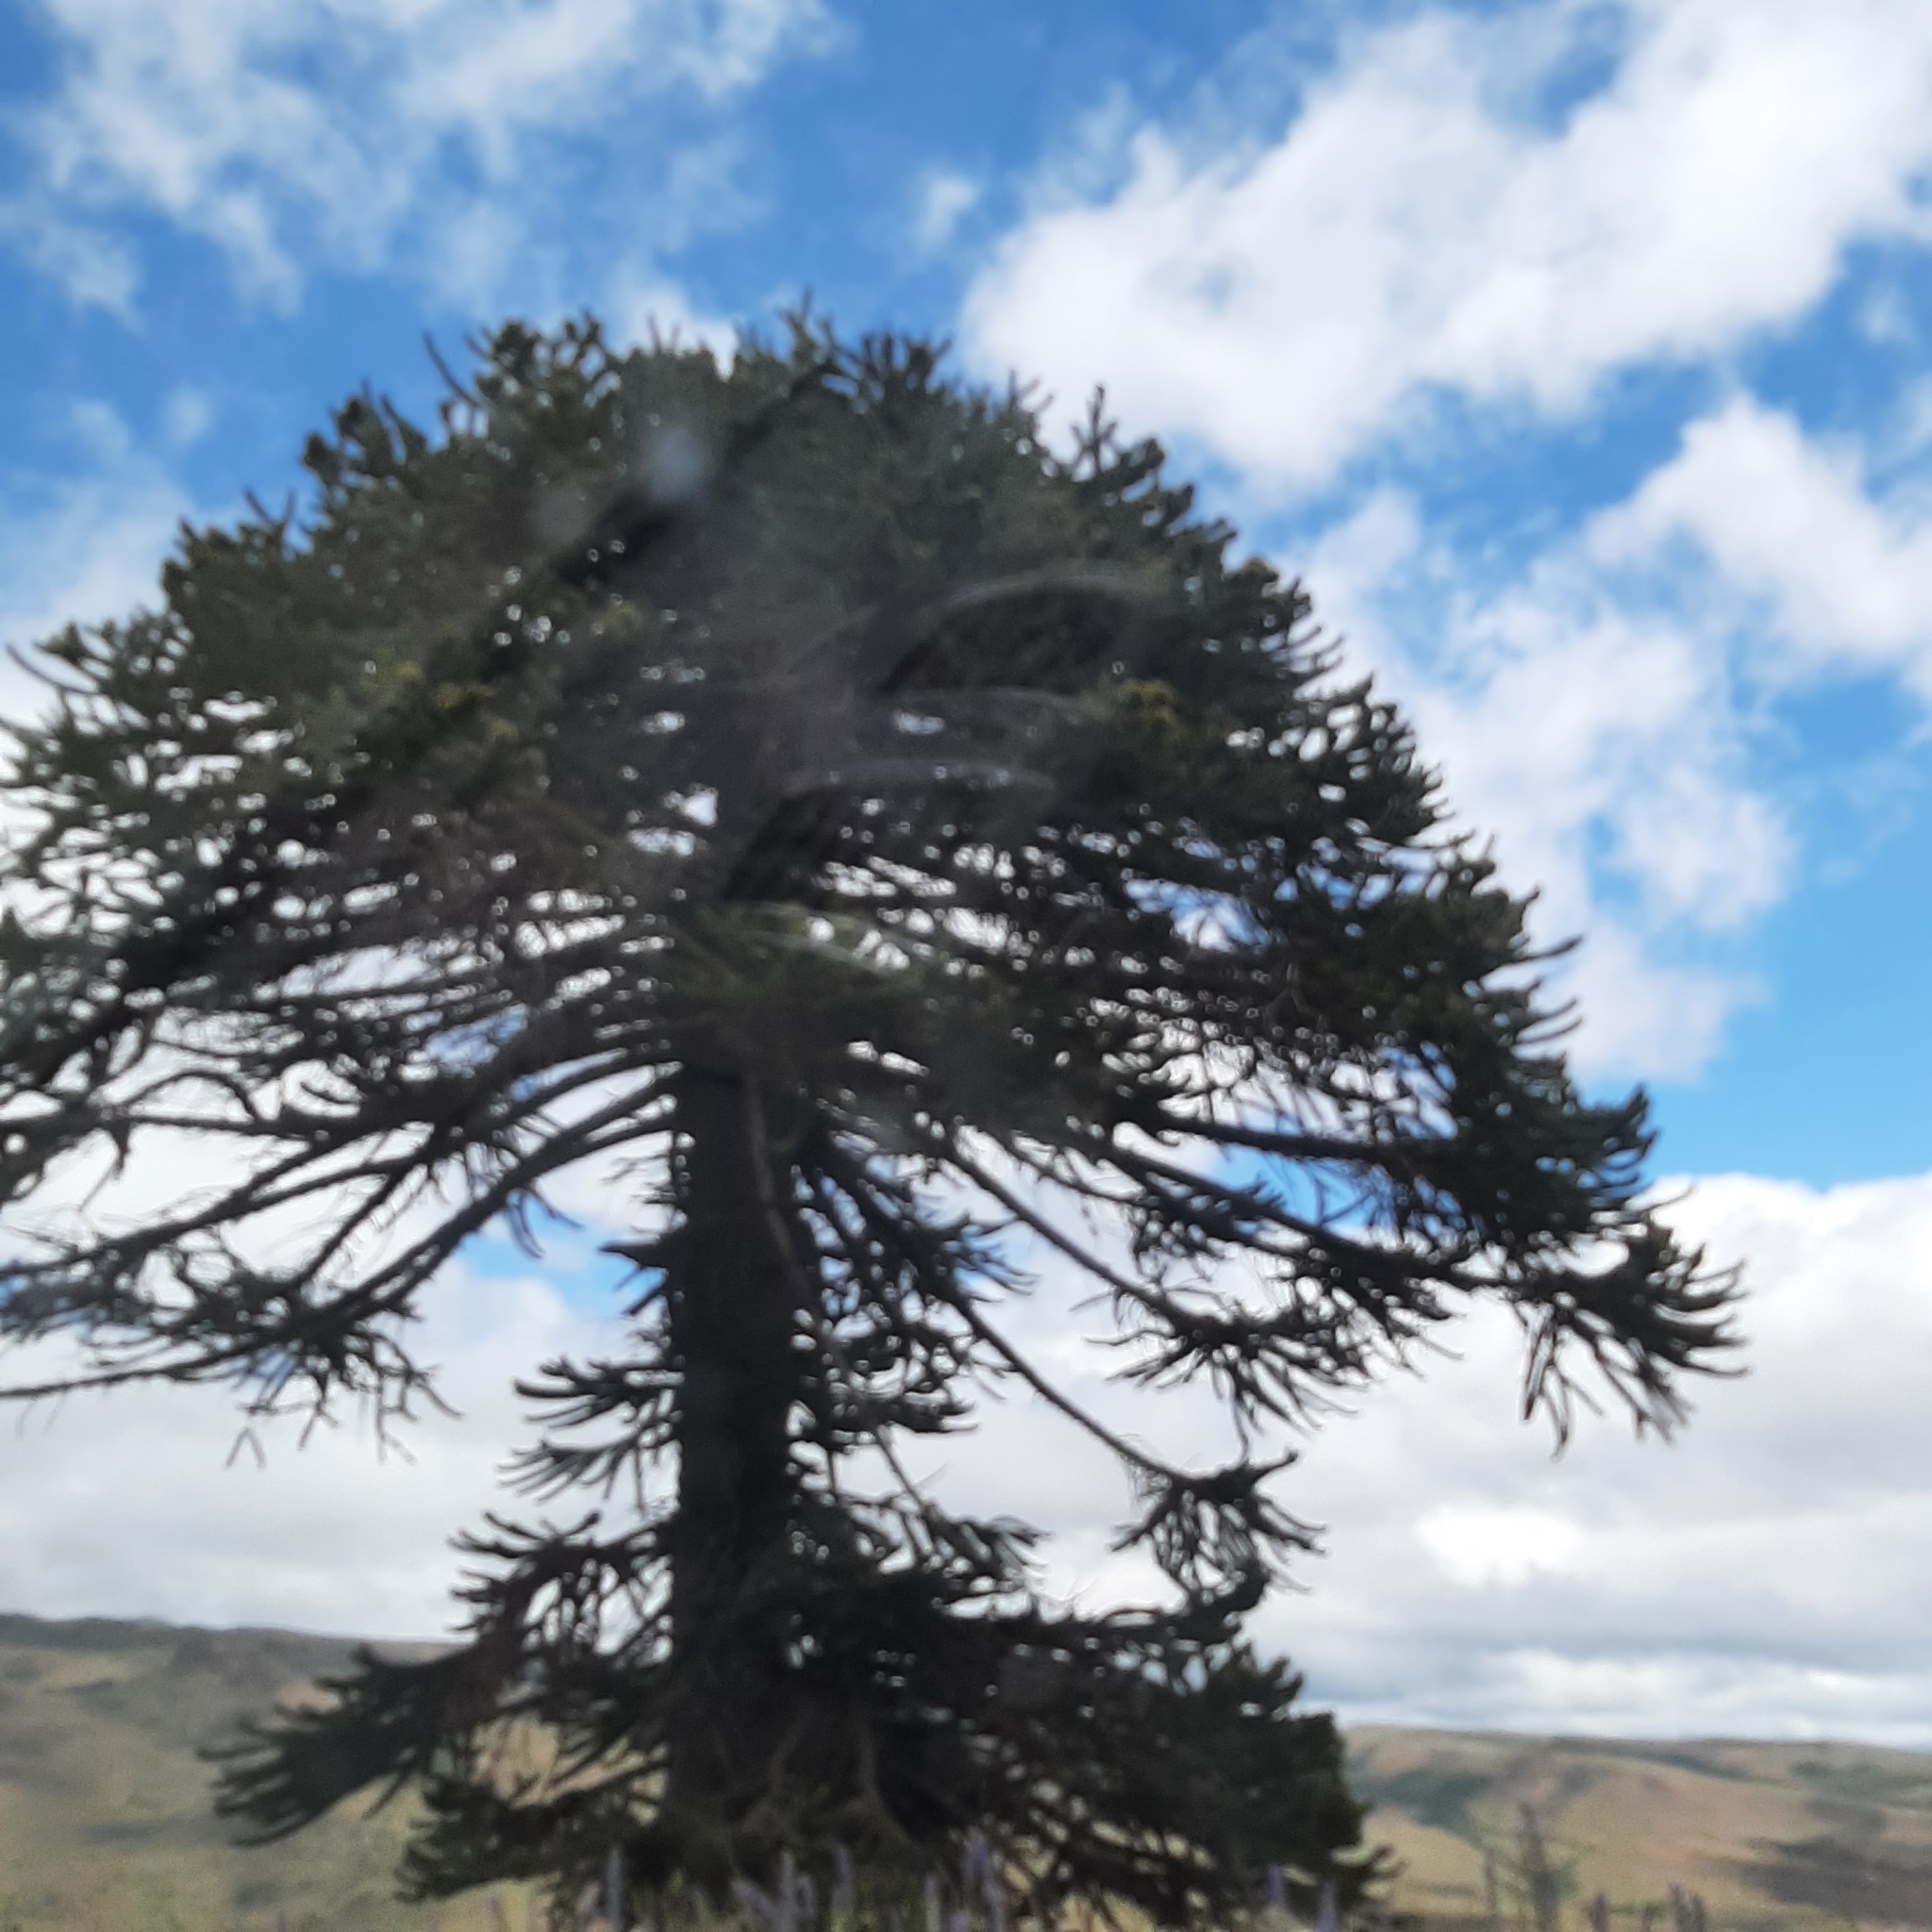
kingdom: Plantae
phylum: Tracheophyta
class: Pinopsida
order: Pinales
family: Araucariaceae
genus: Araucaria
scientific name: Araucaria araucana
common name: Monkey-puzzle
